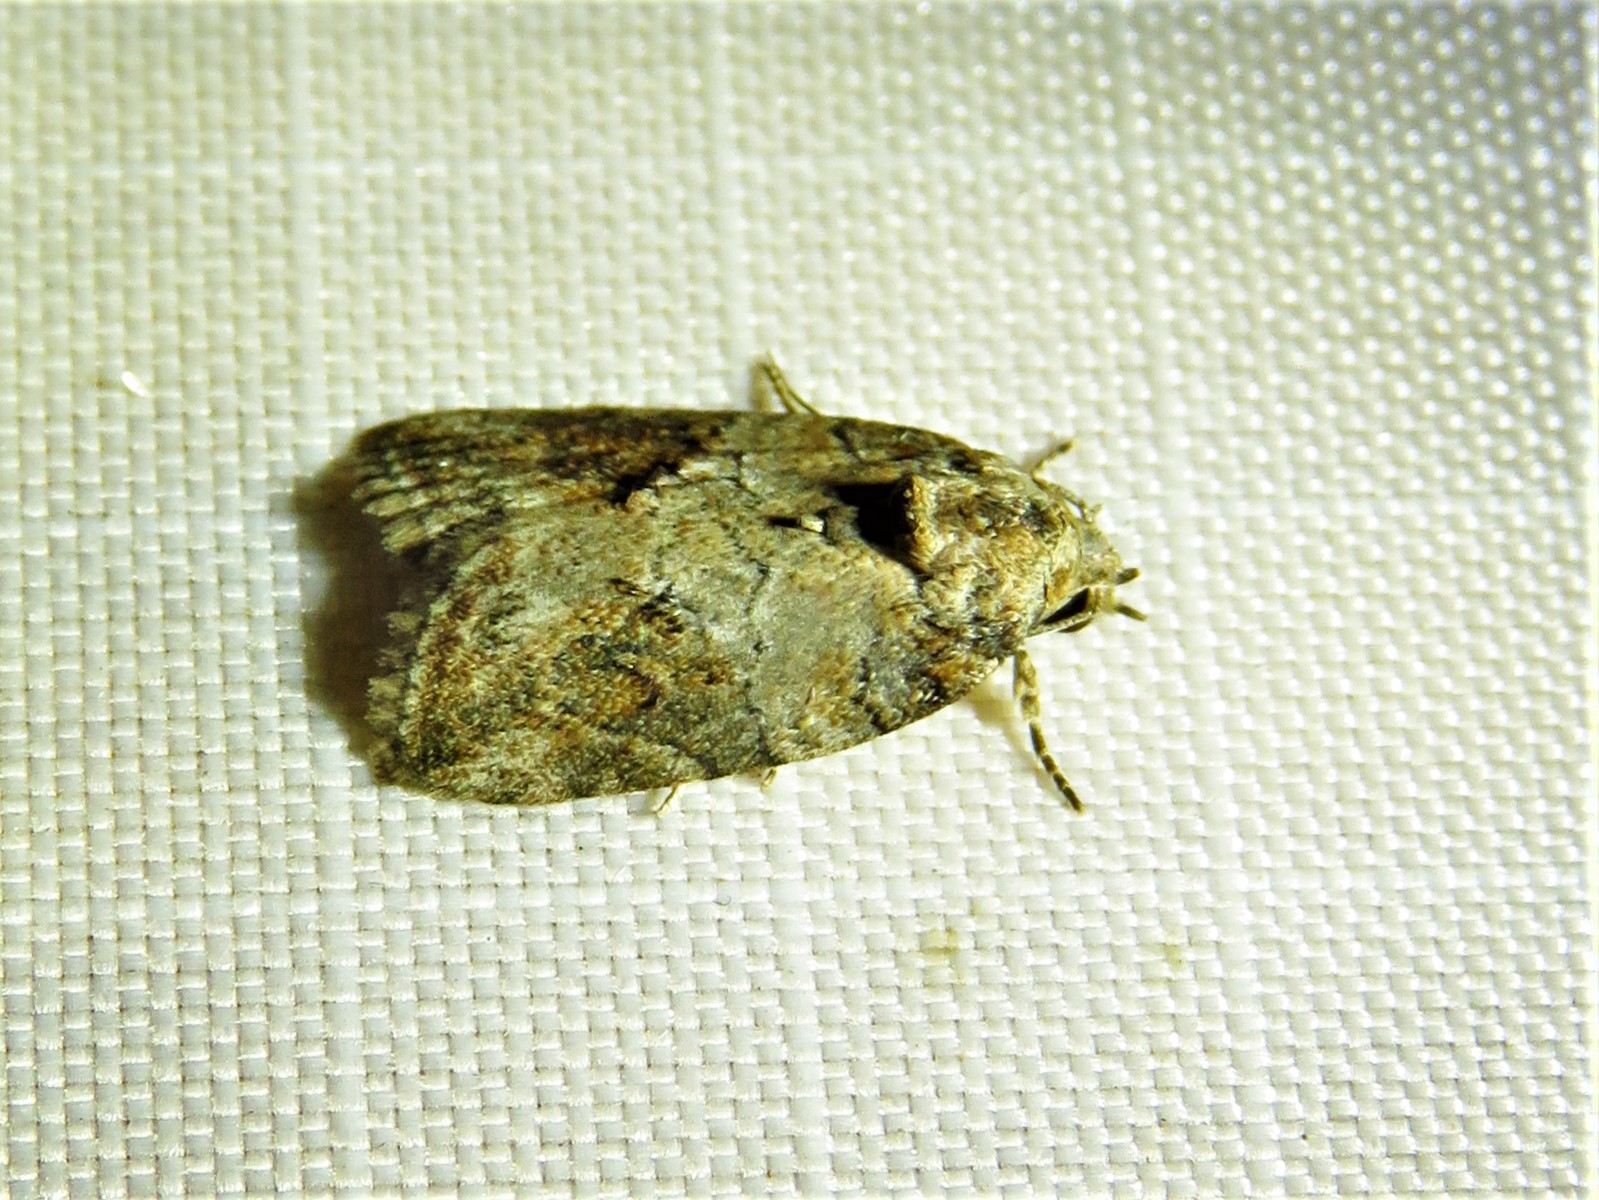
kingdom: Animalia
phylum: Arthropoda
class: Insecta
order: Lepidoptera
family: Nolidae
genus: Garella
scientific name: Garella nilotica
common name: Black-olive caterpillar moth
